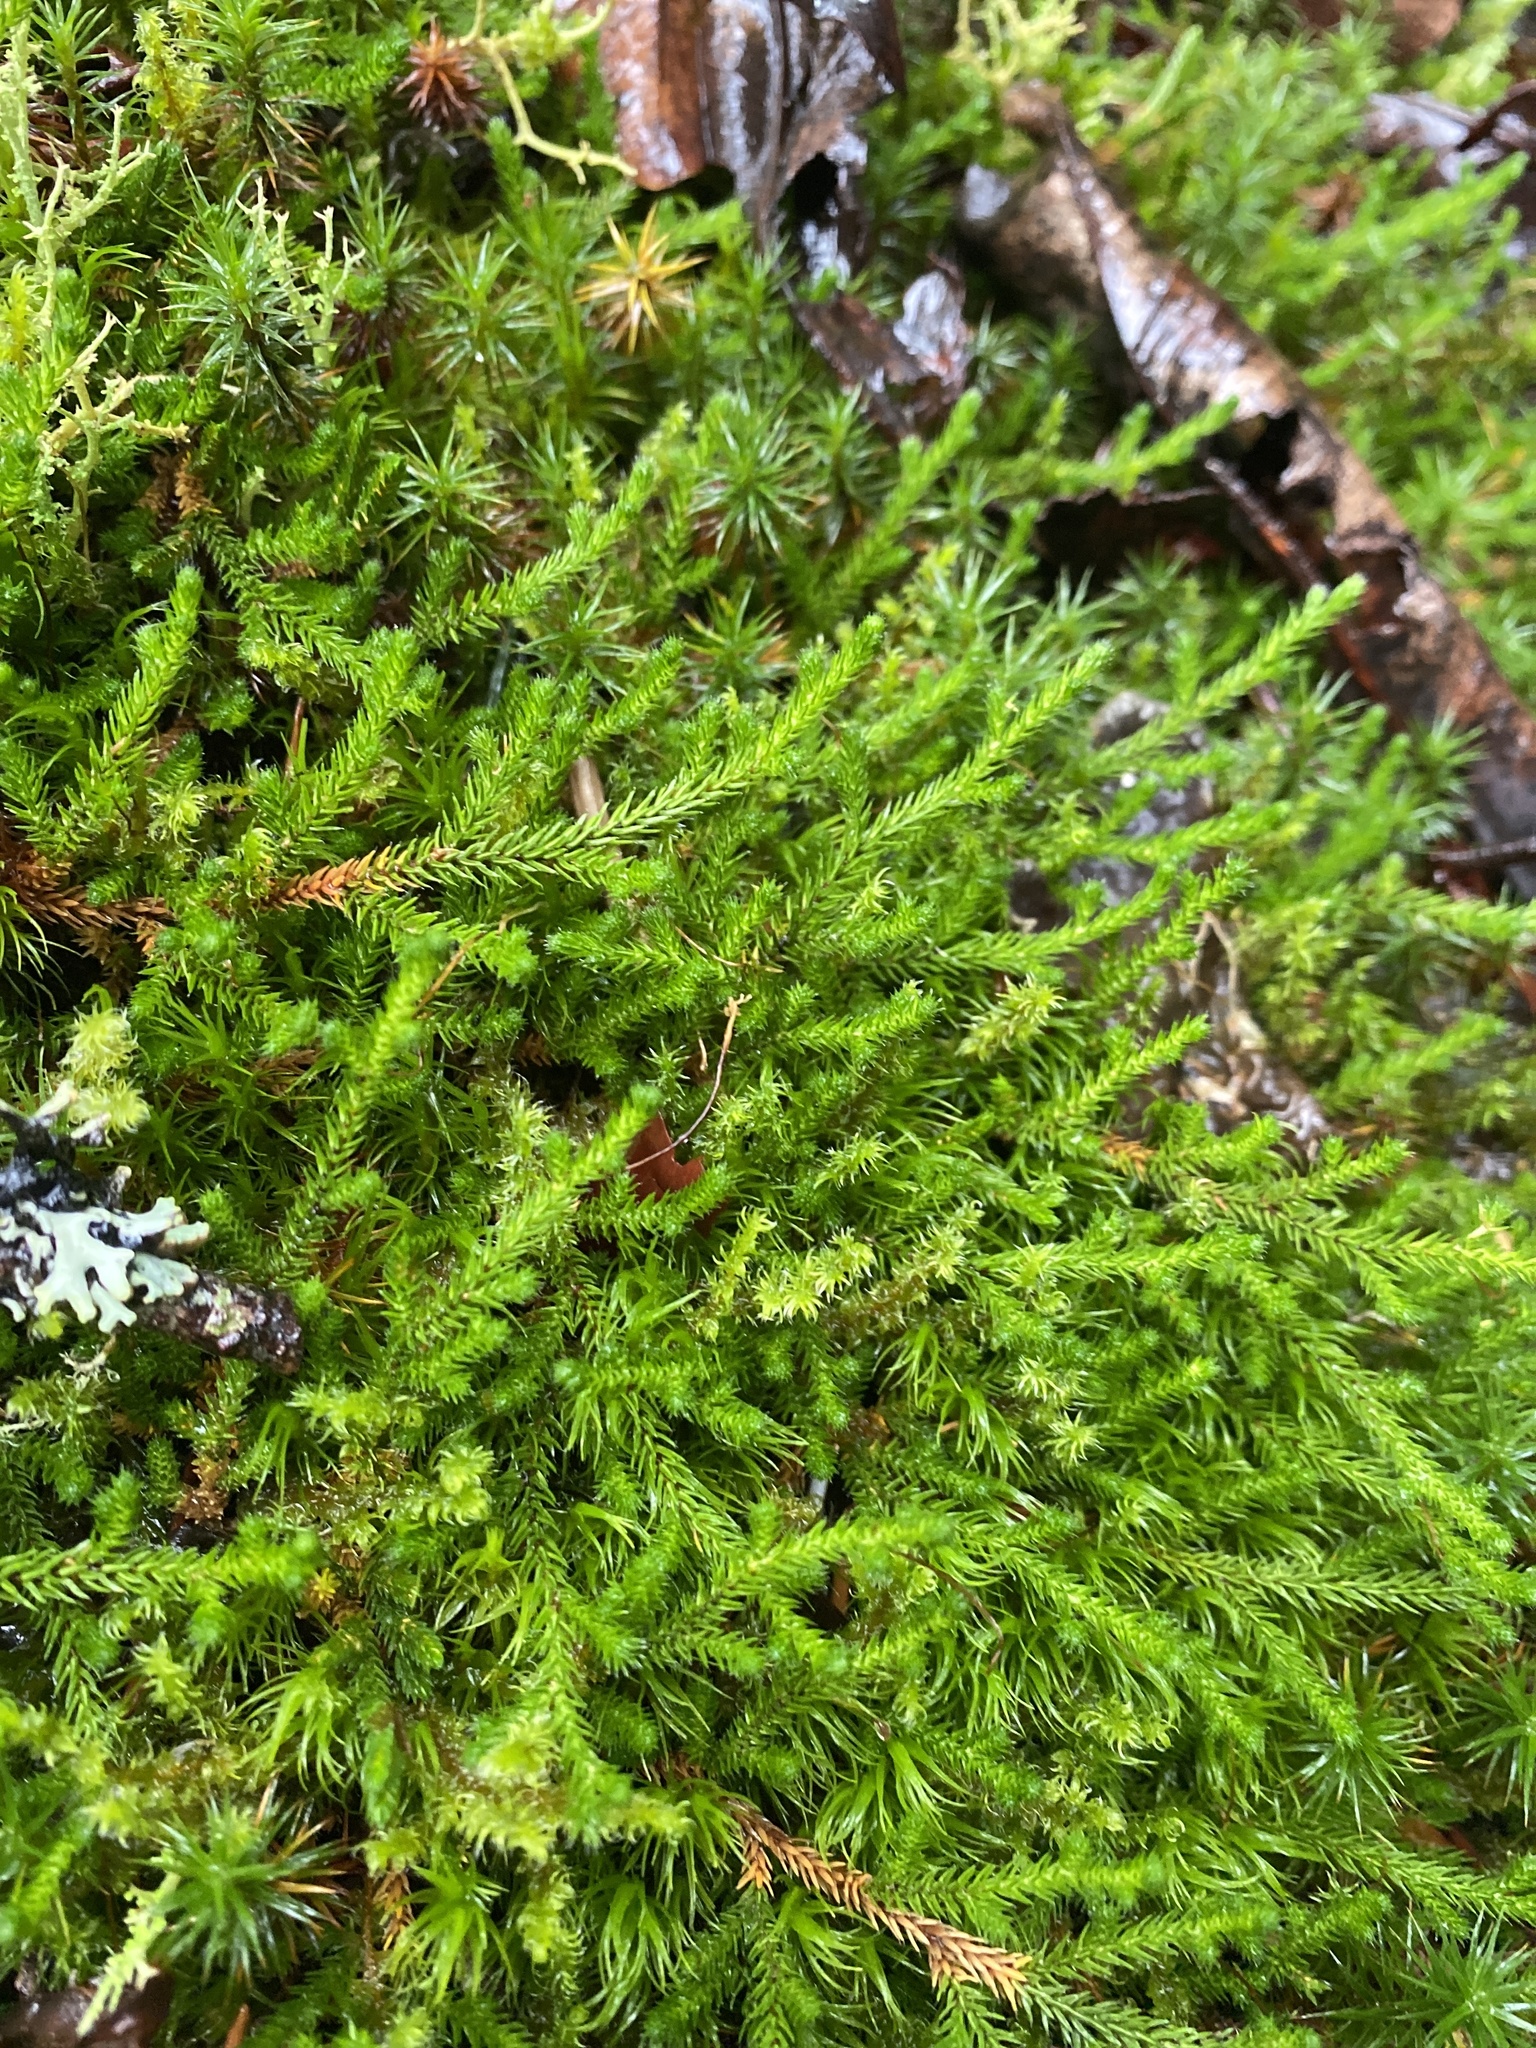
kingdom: Plantae
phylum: Tracheophyta
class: Lycopodiopsida
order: Selaginellales
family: Selaginellaceae
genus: Selaginella
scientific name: Selaginella wallacei
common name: Wallace's selaginella
